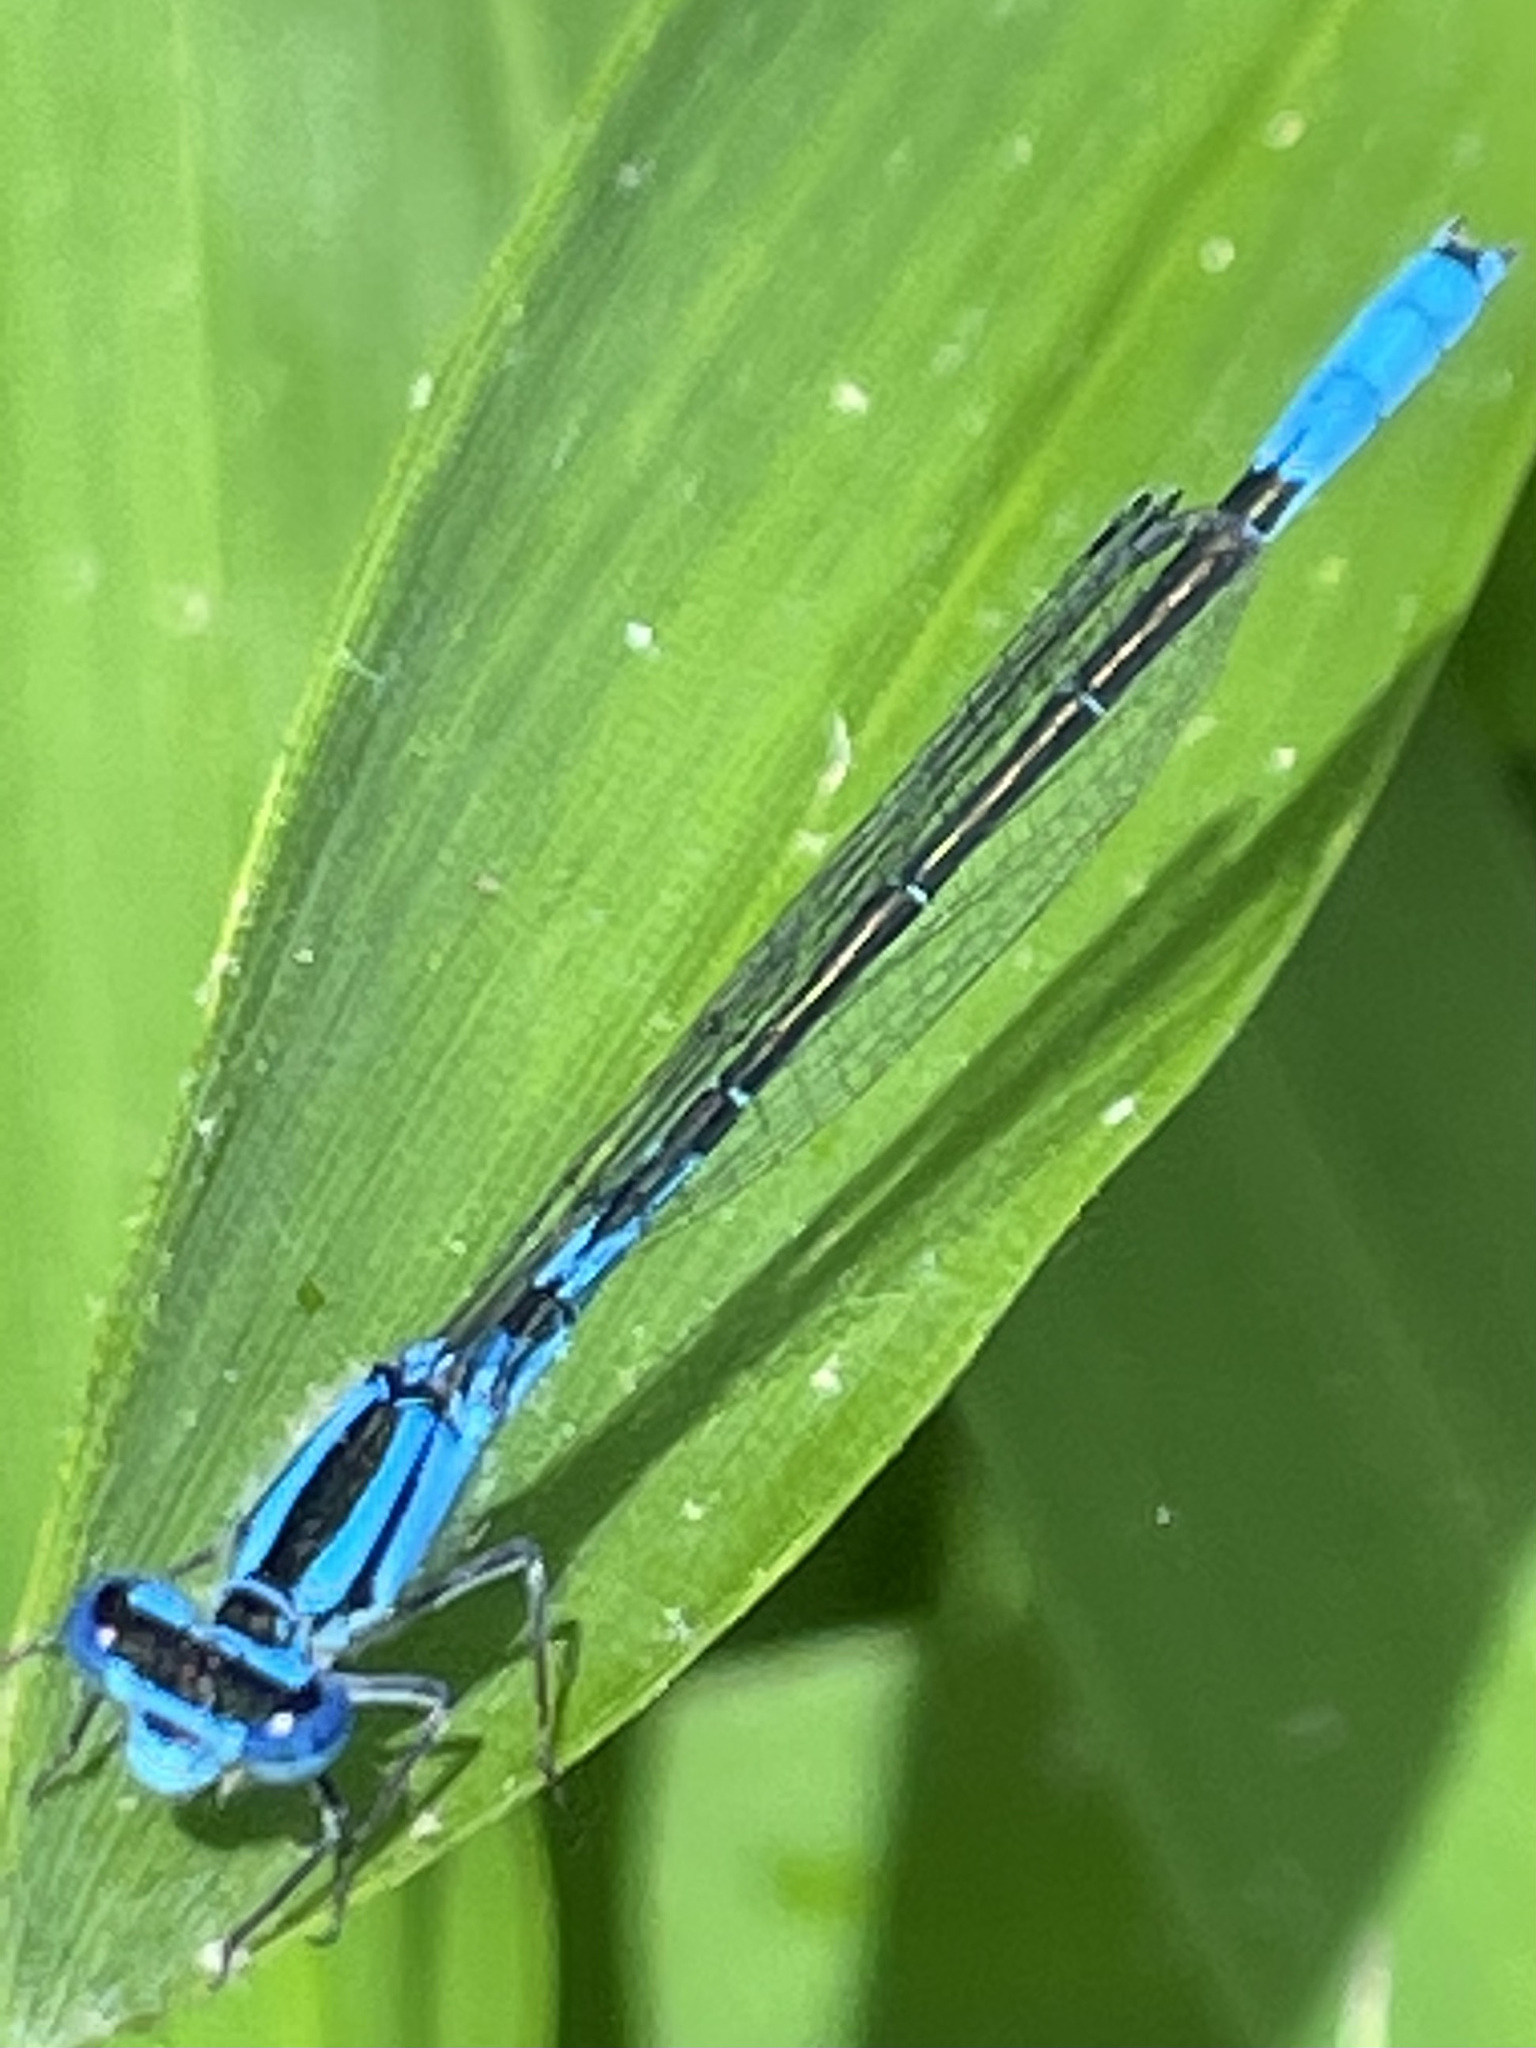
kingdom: Animalia
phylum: Arthropoda
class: Insecta
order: Odonata
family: Coenagrionidae
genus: Enallagma
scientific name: Enallagma aspersum
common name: Azure bluet
